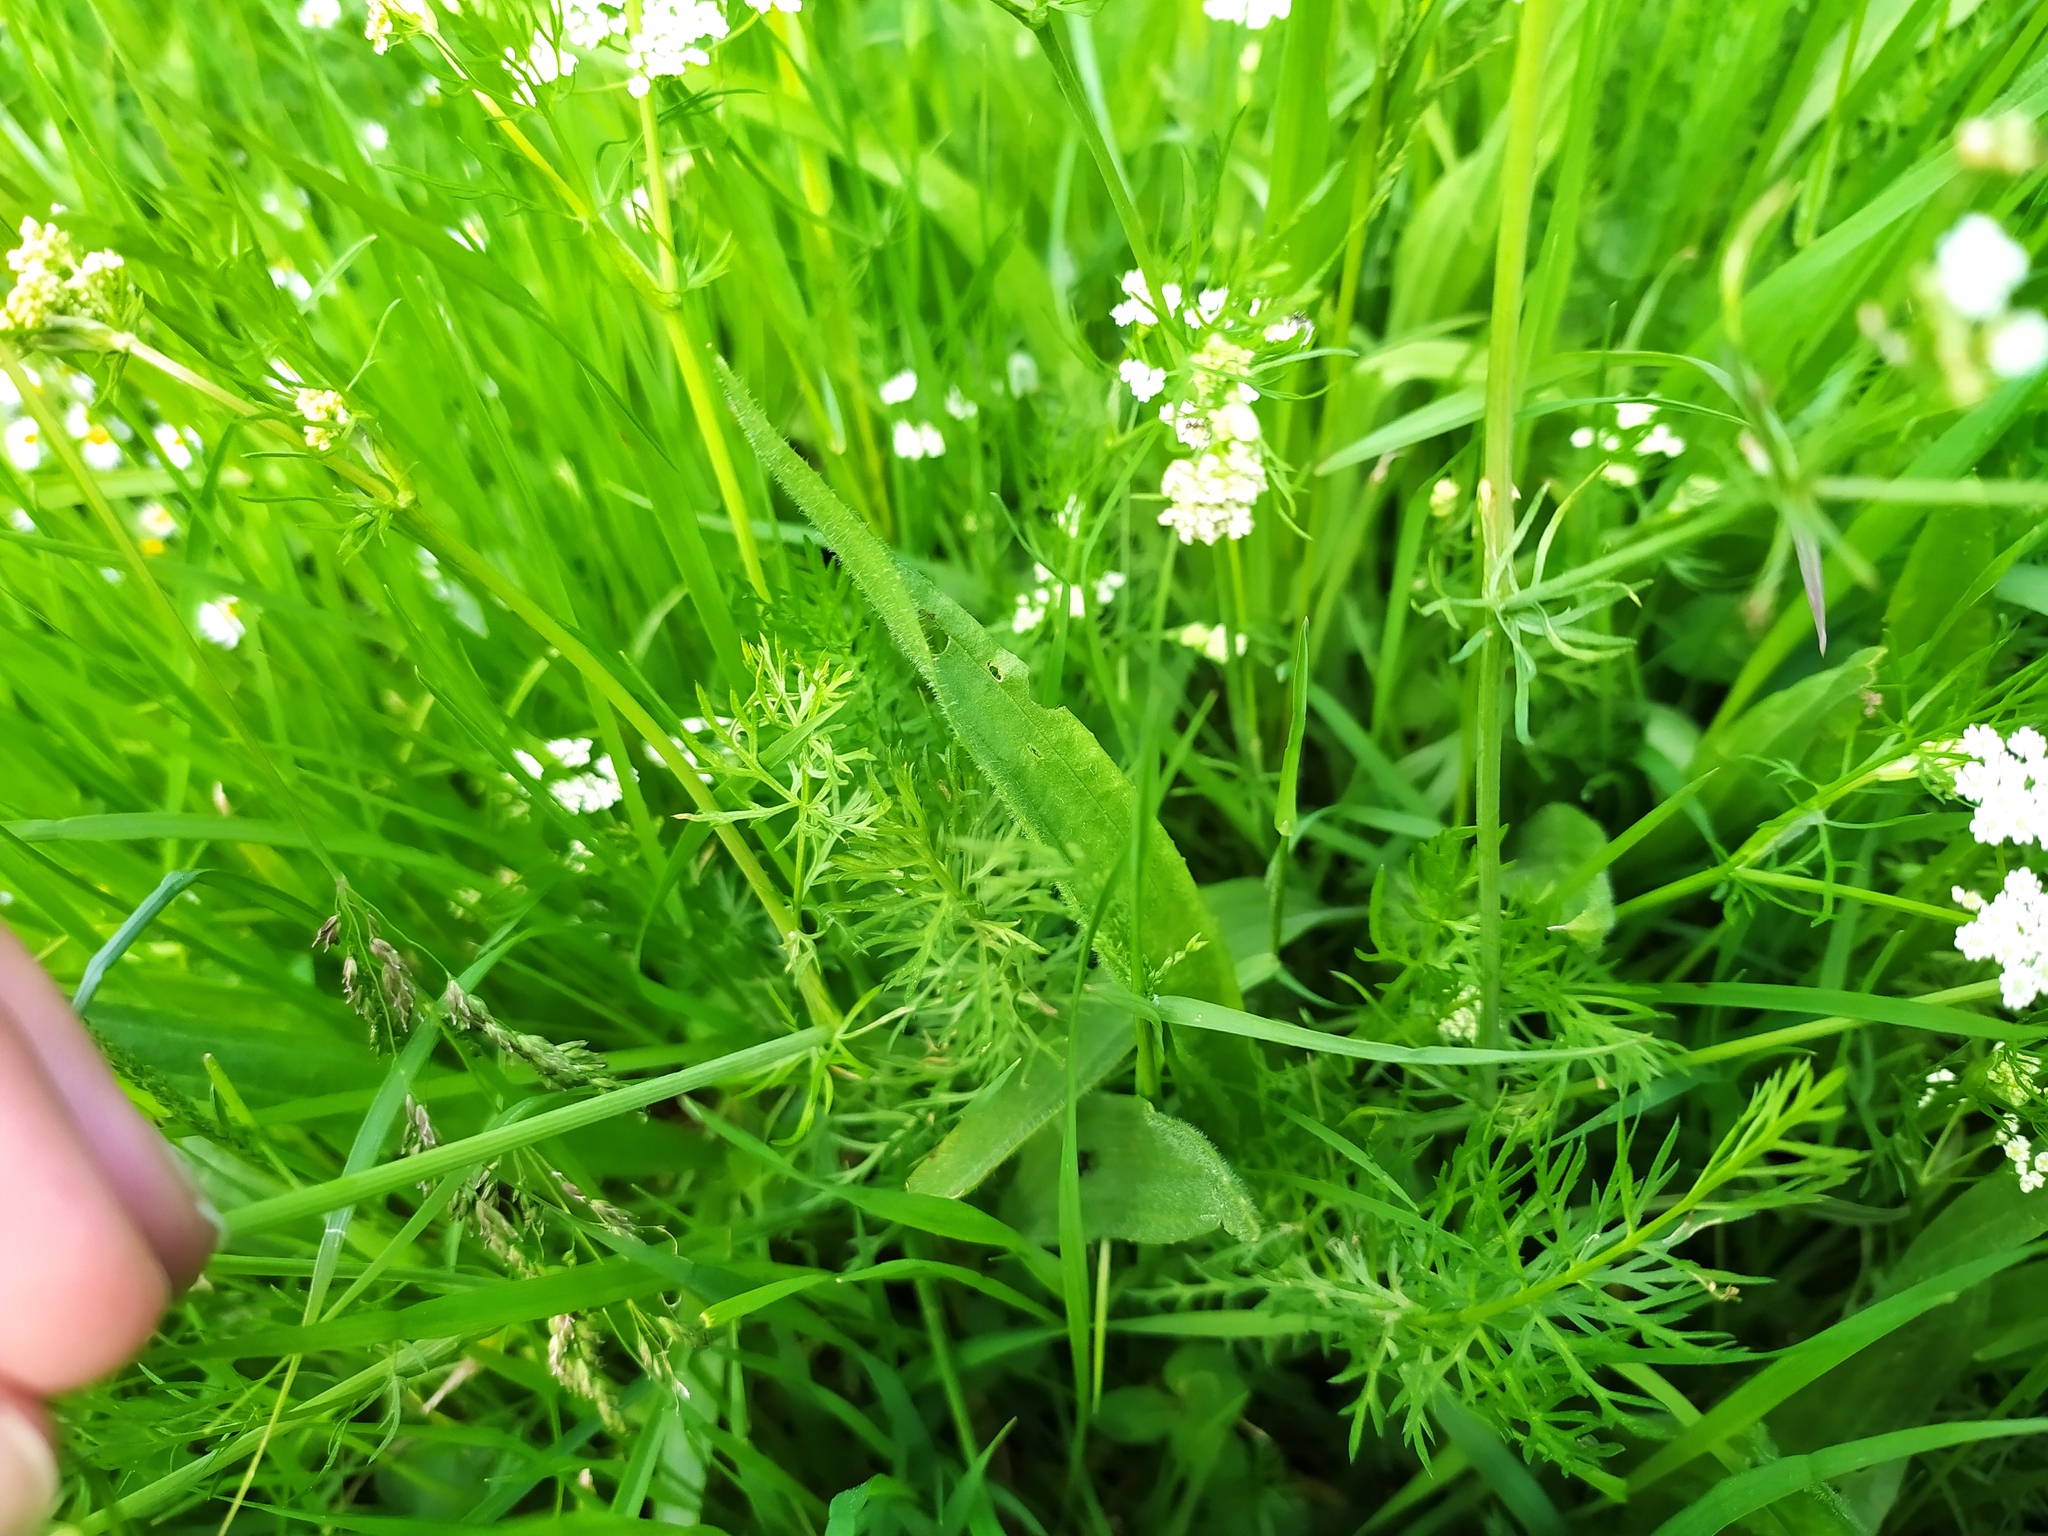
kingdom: Plantae
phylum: Tracheophyta
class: Magnoliopsida
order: Apiales
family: Apiaceae
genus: Carum
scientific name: Carum carvi
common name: Caraway
